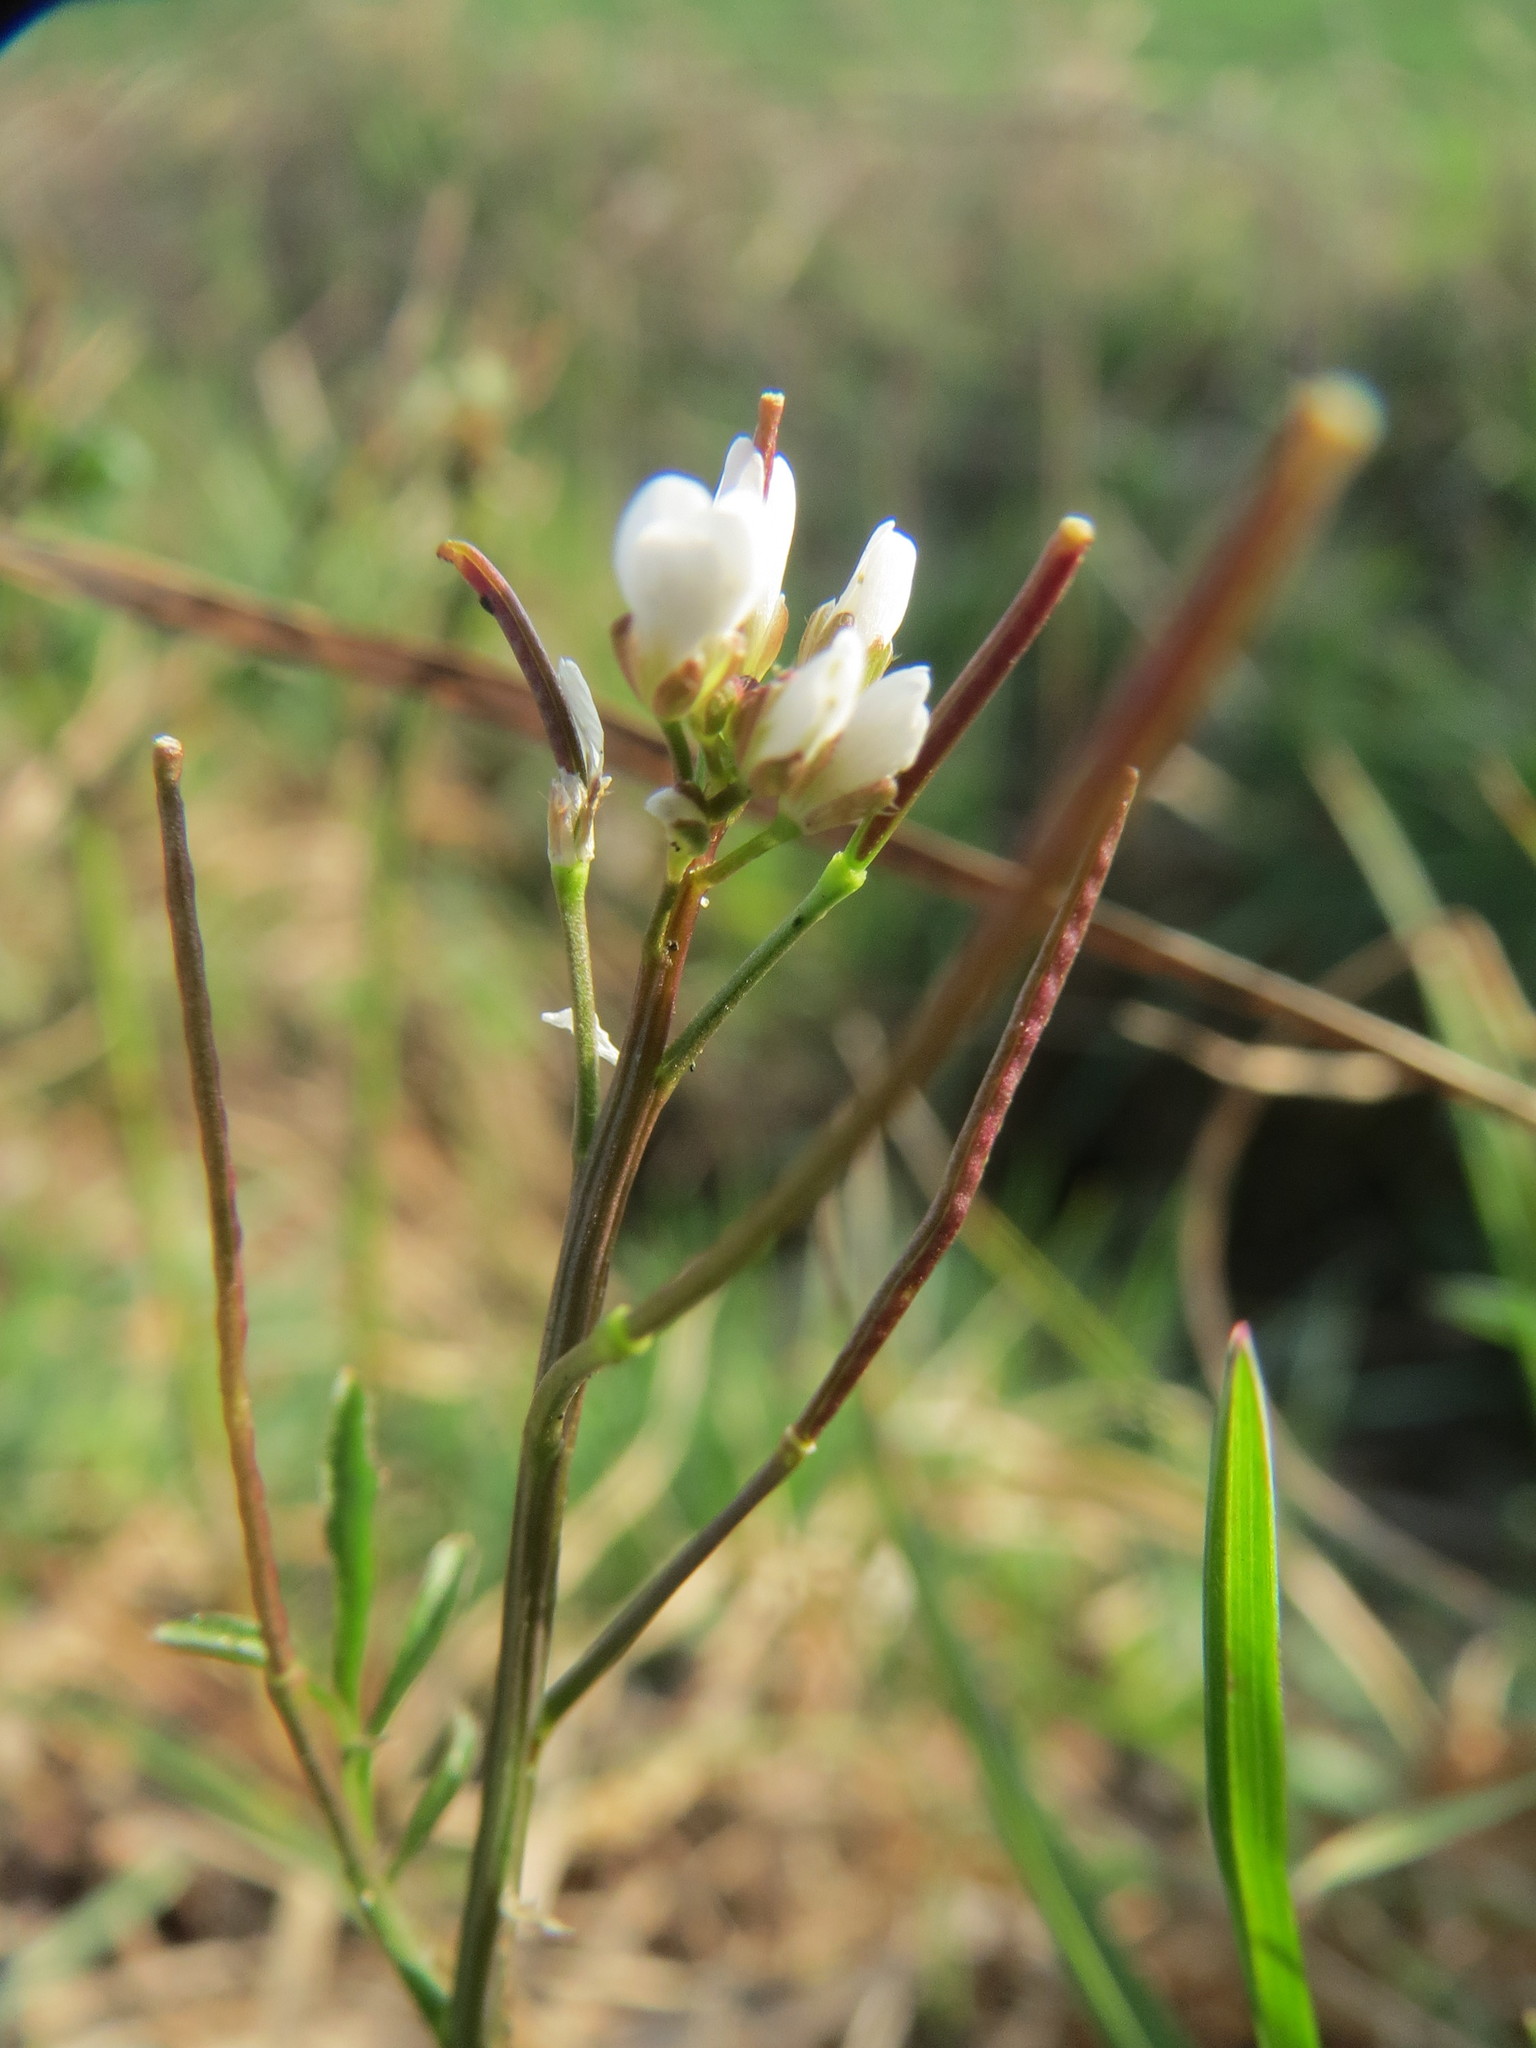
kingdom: Plantae
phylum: Tracheophyta
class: Magnoliopsida
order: Brassicales
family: Brassicaceae
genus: Cardamine
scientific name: Cardamine hirsuta
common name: Hairy bittercress
